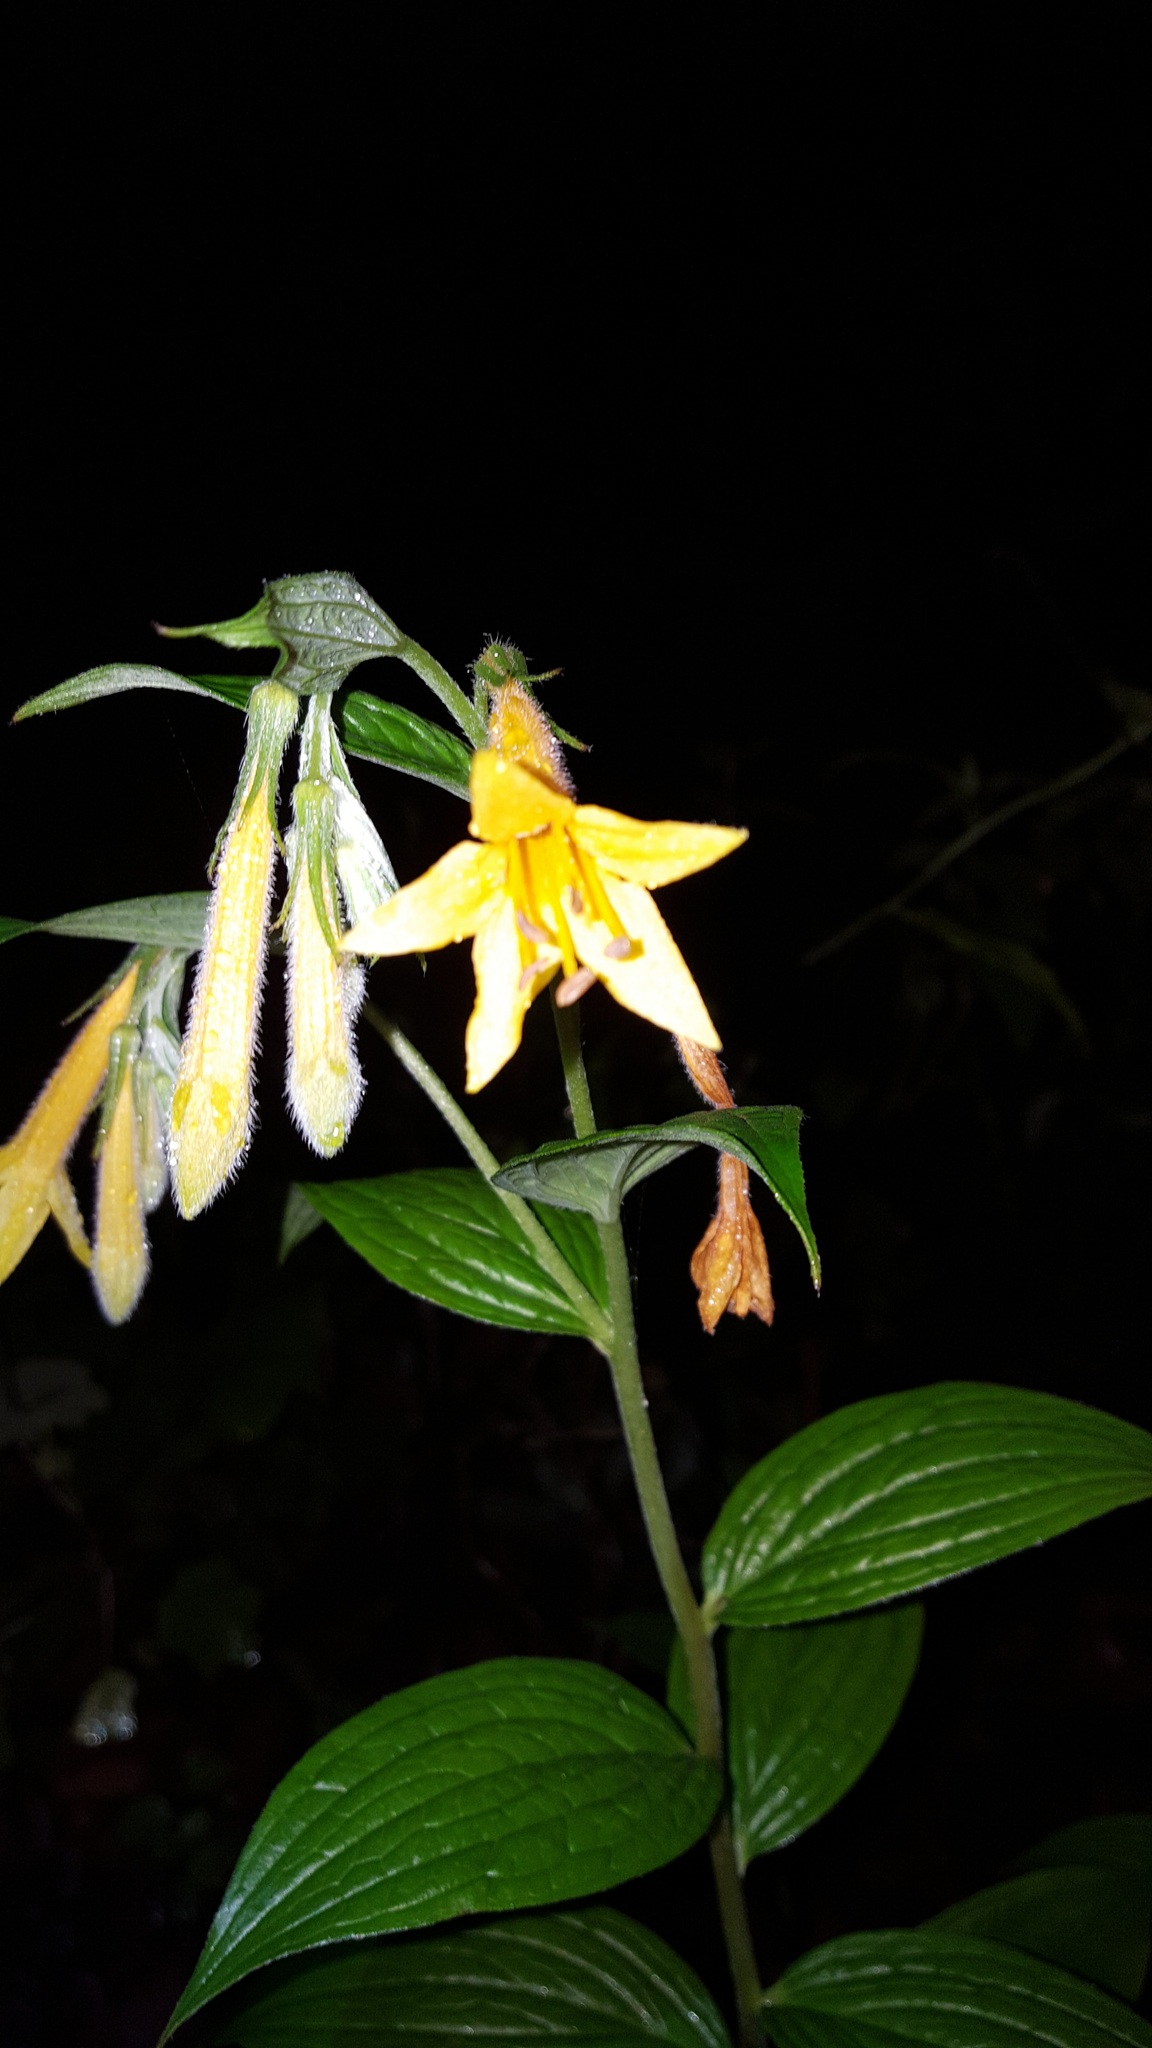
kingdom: Plantae
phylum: Tracheophyta
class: Magnoliopsida
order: Boraginales
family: Boraginaceae
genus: Lithospermum
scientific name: Lithospermum johnstonii
